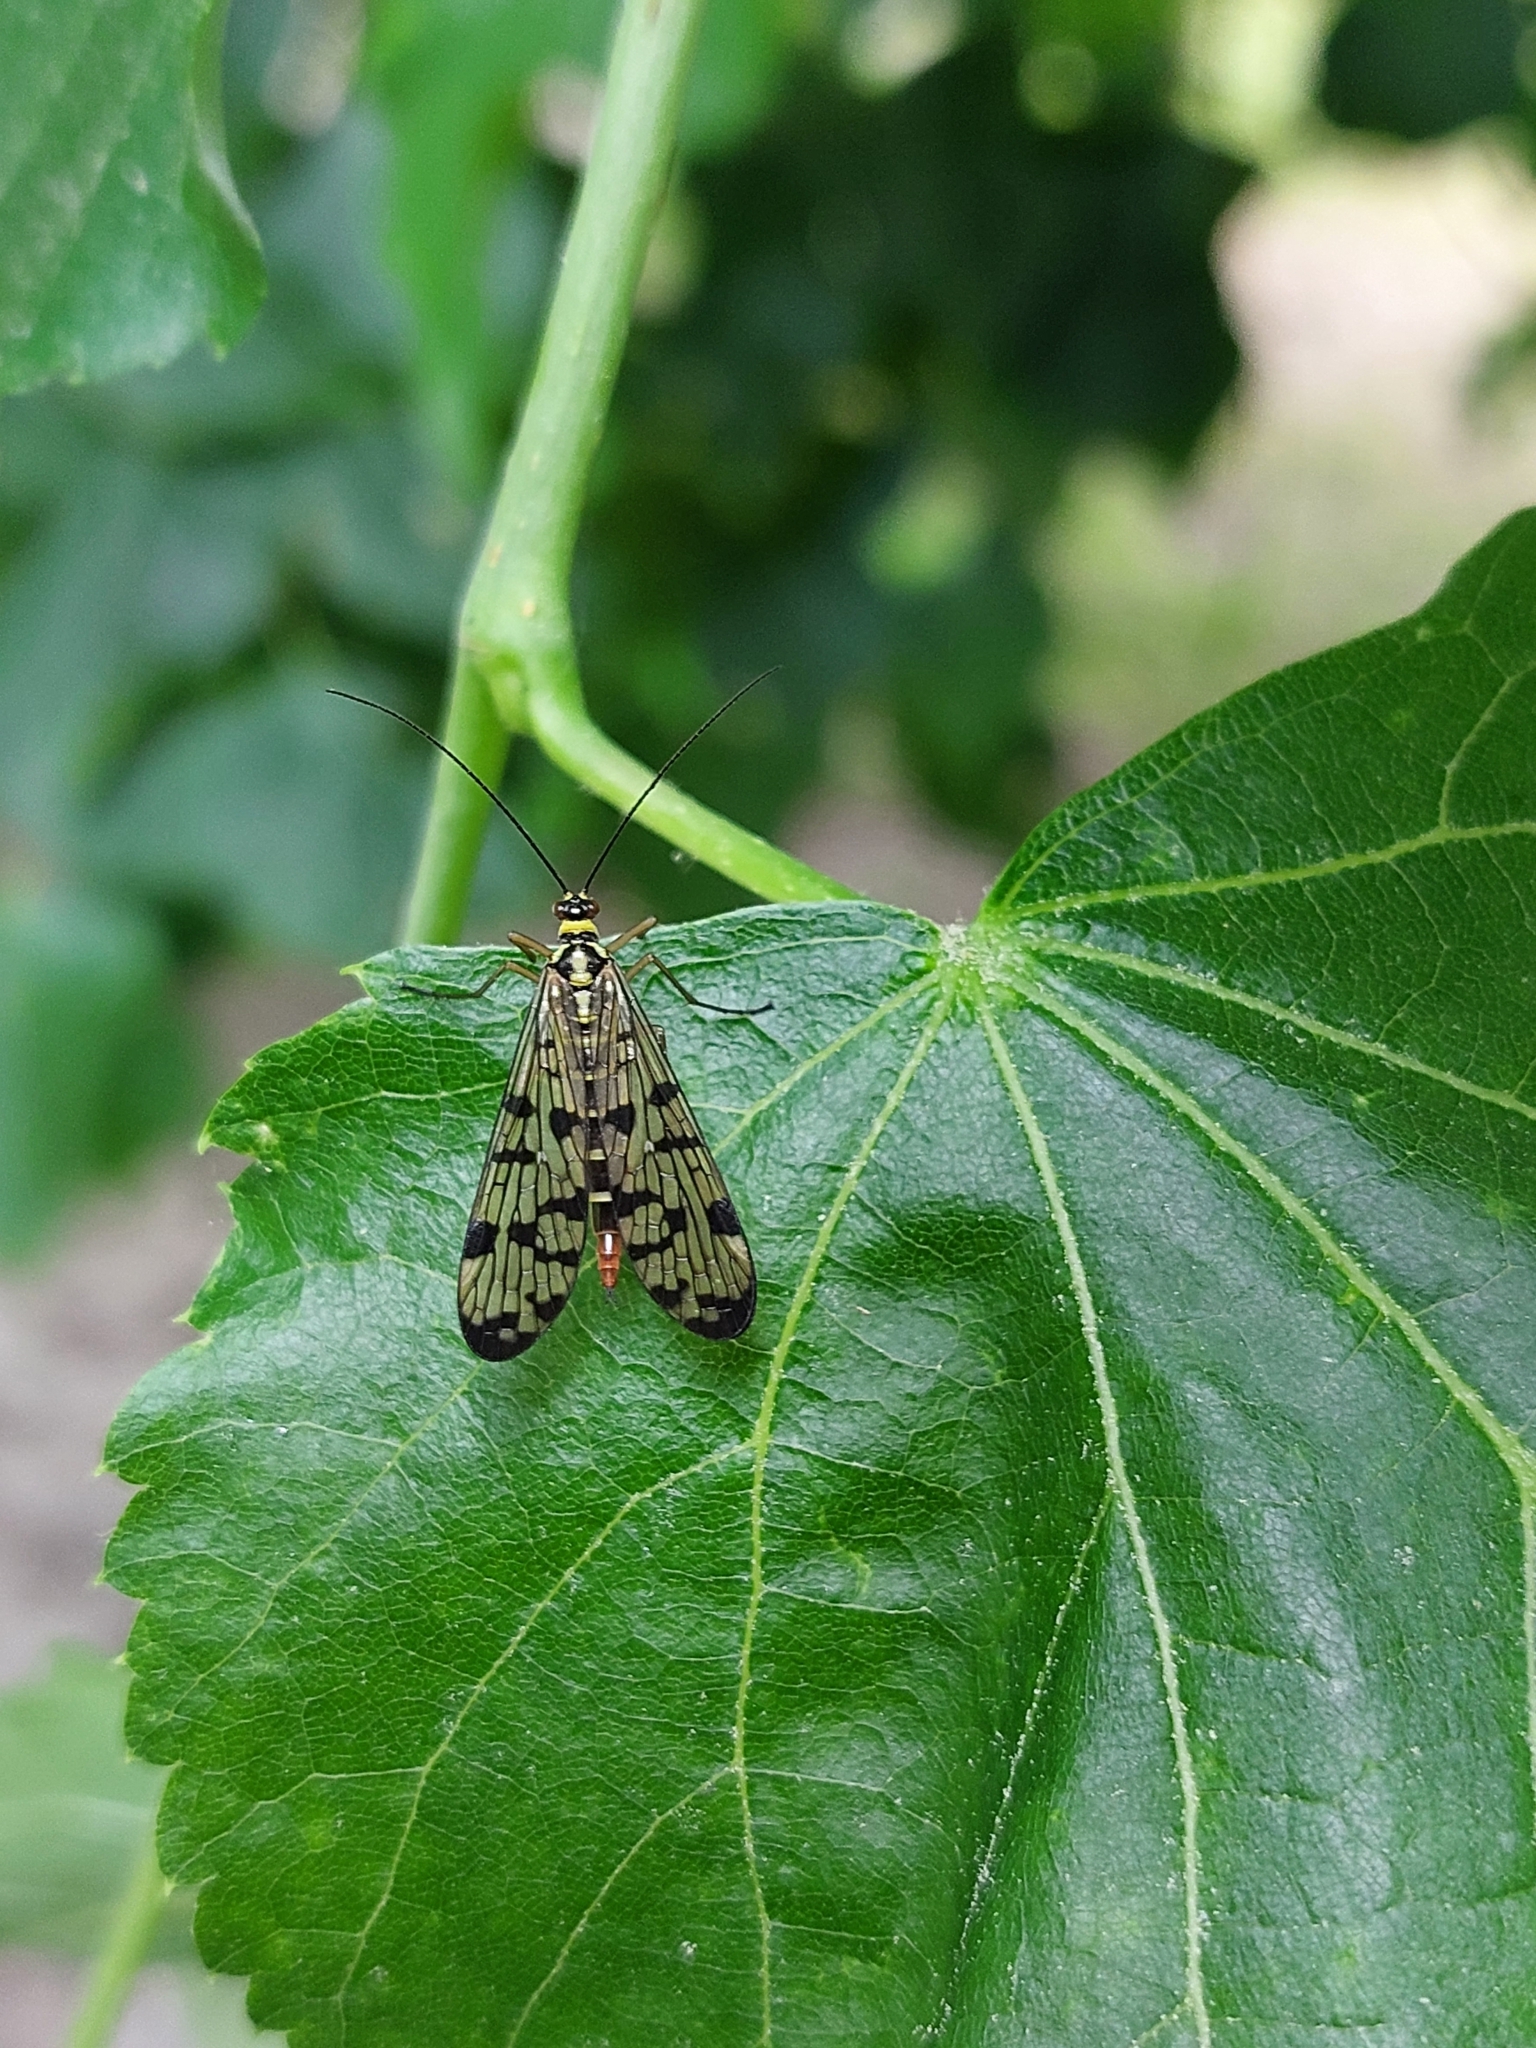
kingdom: Animalia
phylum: Arthropoda
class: Insecta
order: Mecoptera
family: Panorpidae
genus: Panorpa
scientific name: Panorpa communis
